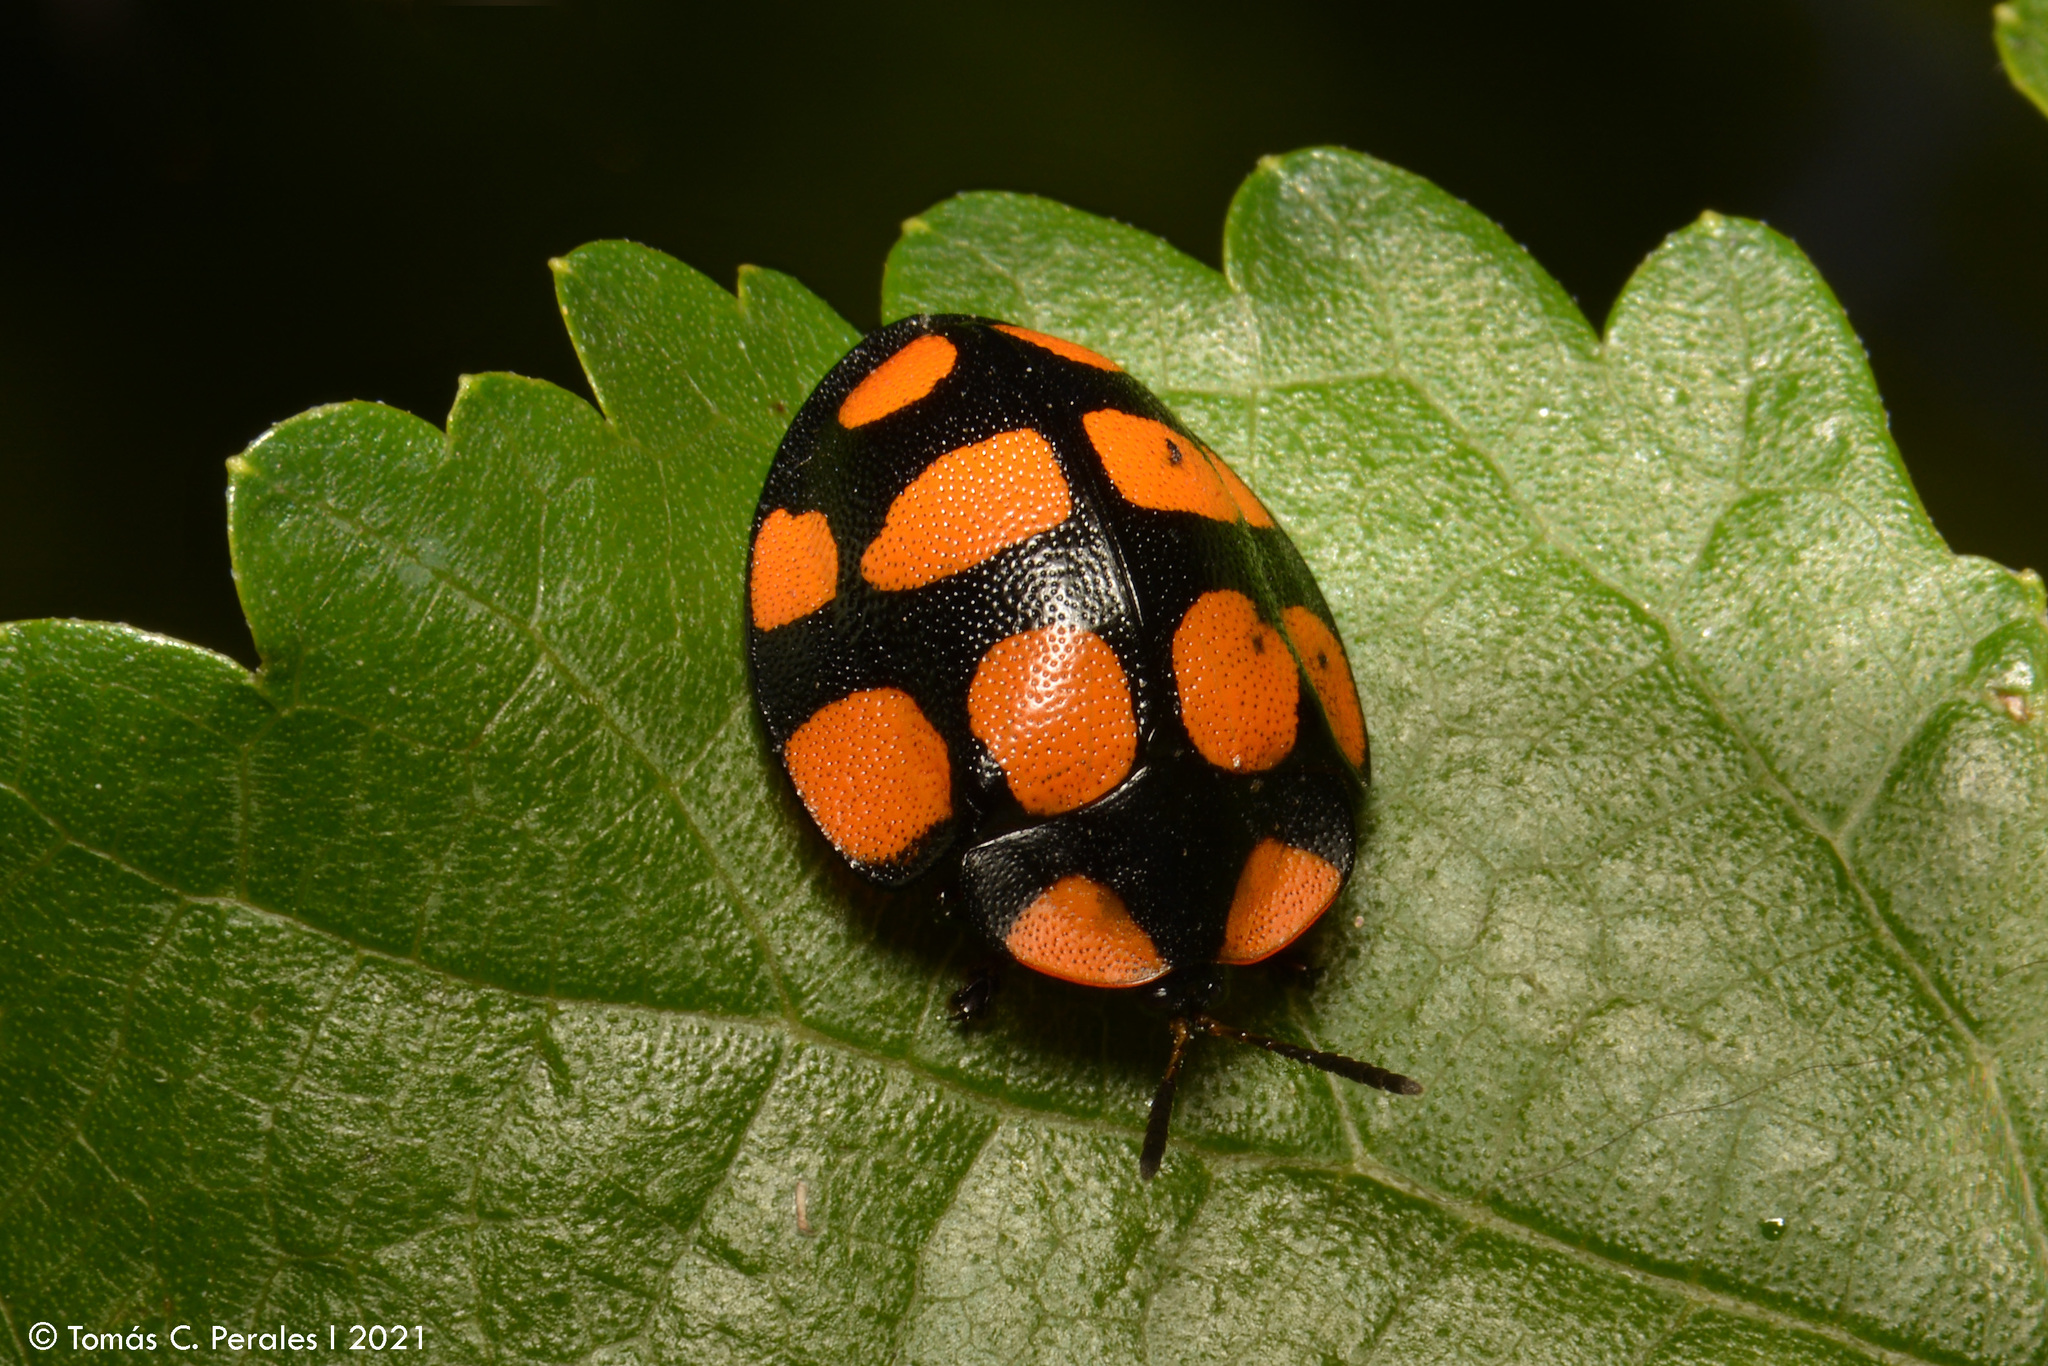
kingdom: Animalia
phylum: Arthropoda
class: Insecta
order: Coleoptera
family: Chrysomelidae
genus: Botanochara
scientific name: Botanochara decempustulata
